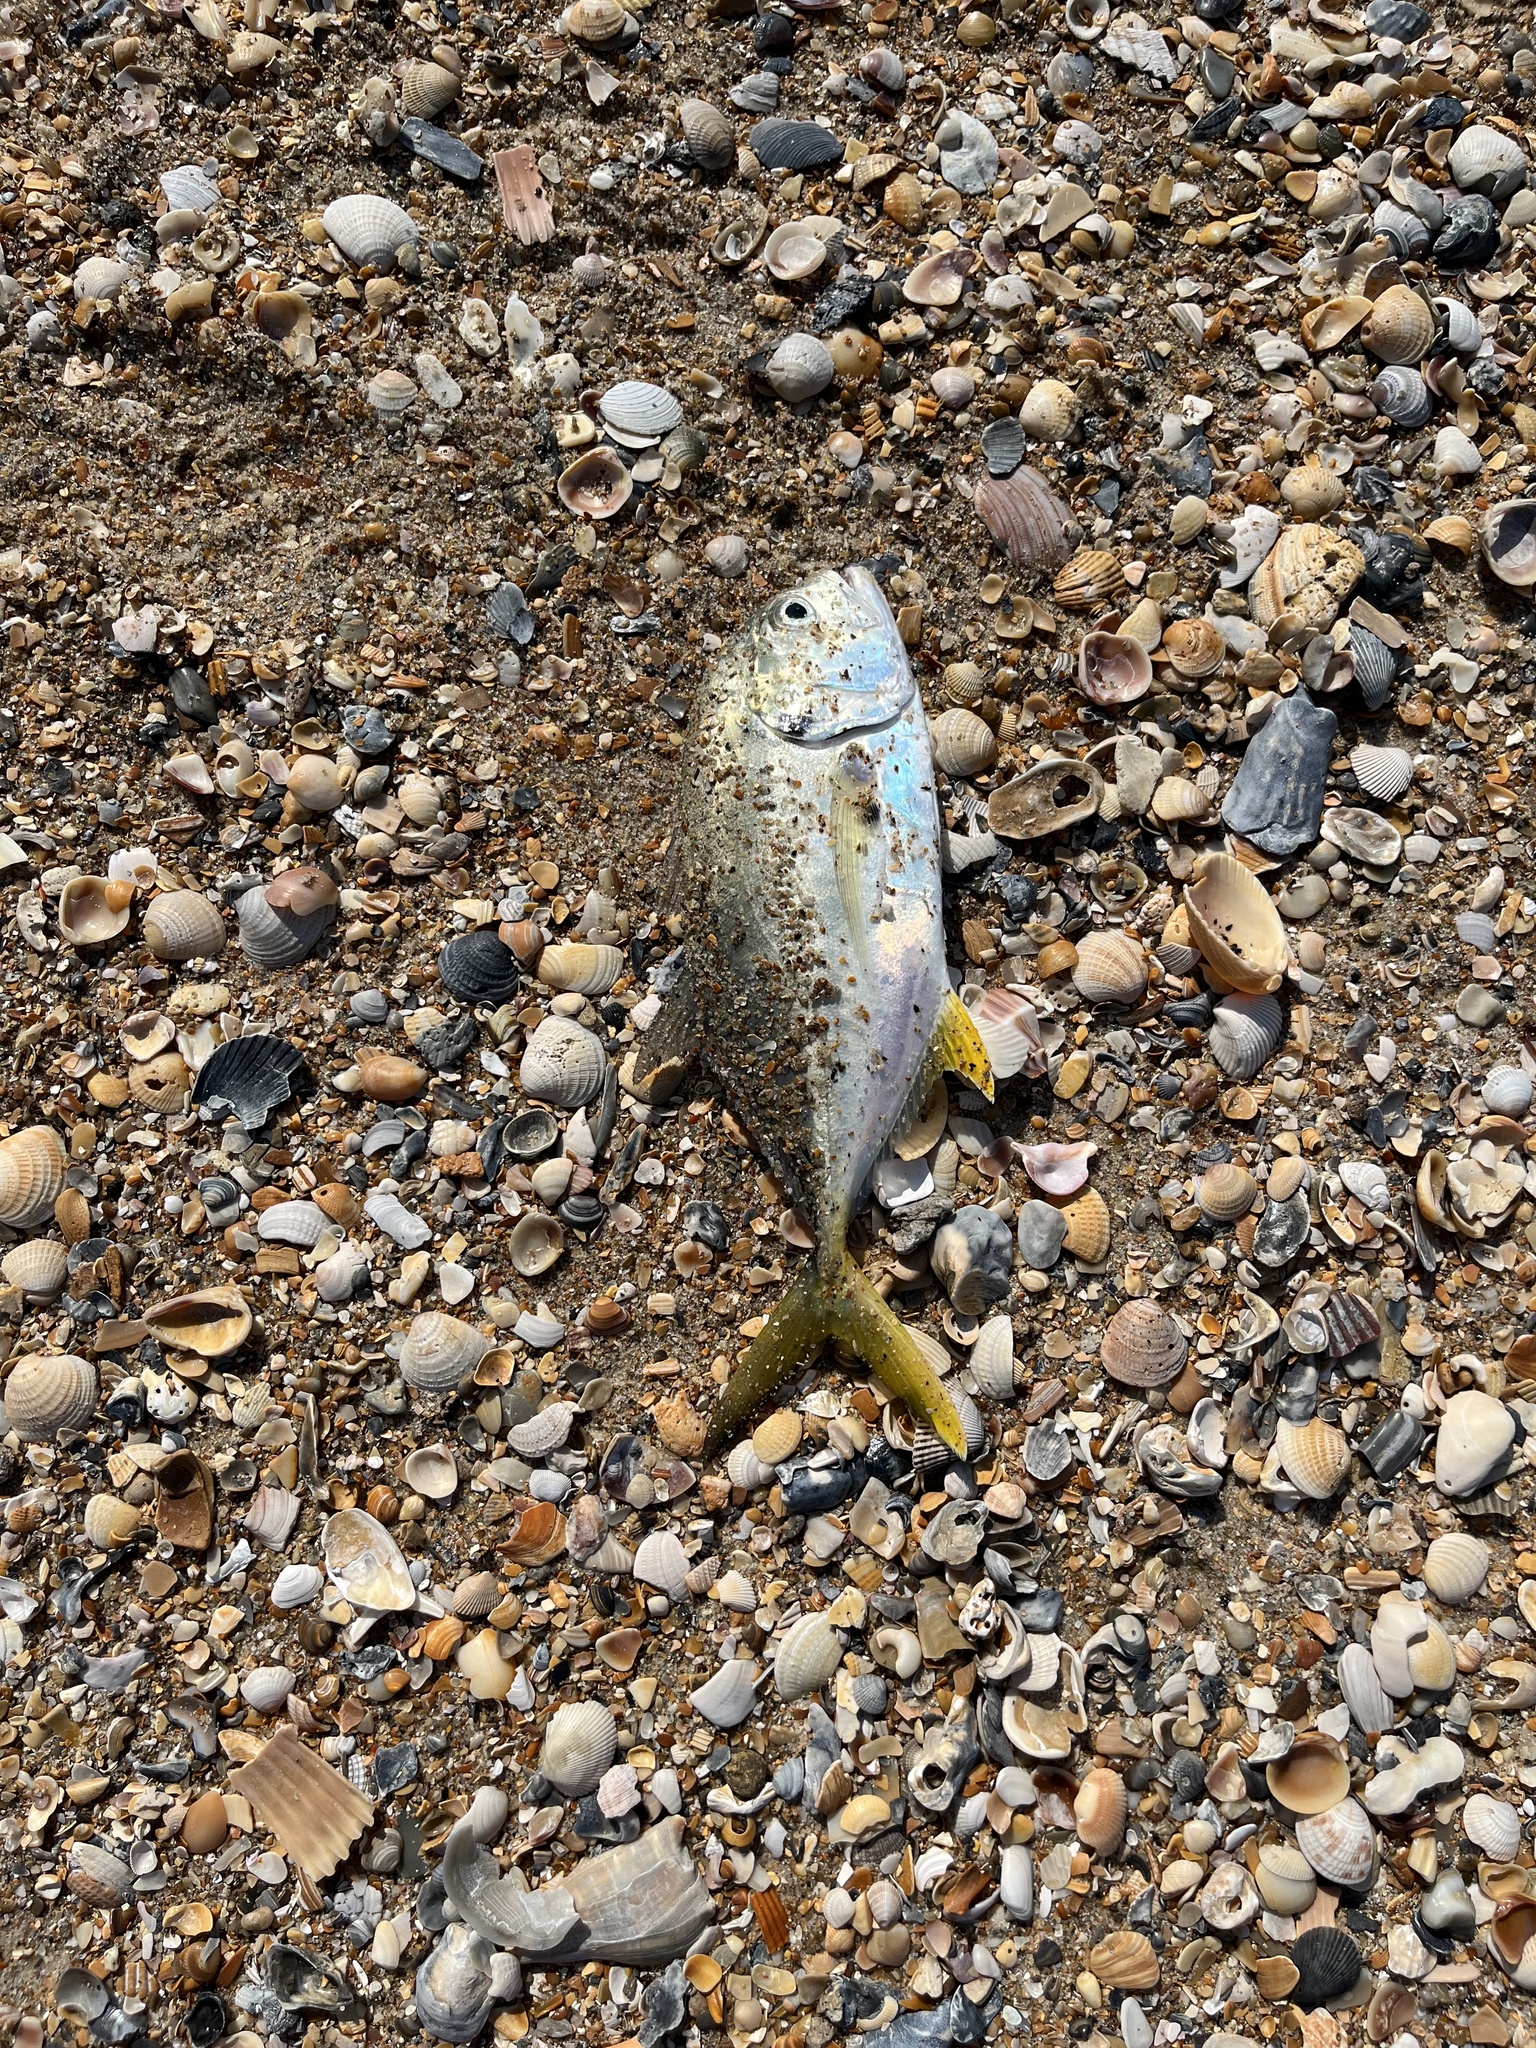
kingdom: Animalia
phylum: Chordata
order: Perciformes
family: Carangidae
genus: Caranx
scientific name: Caranx hippos
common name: Common jack
